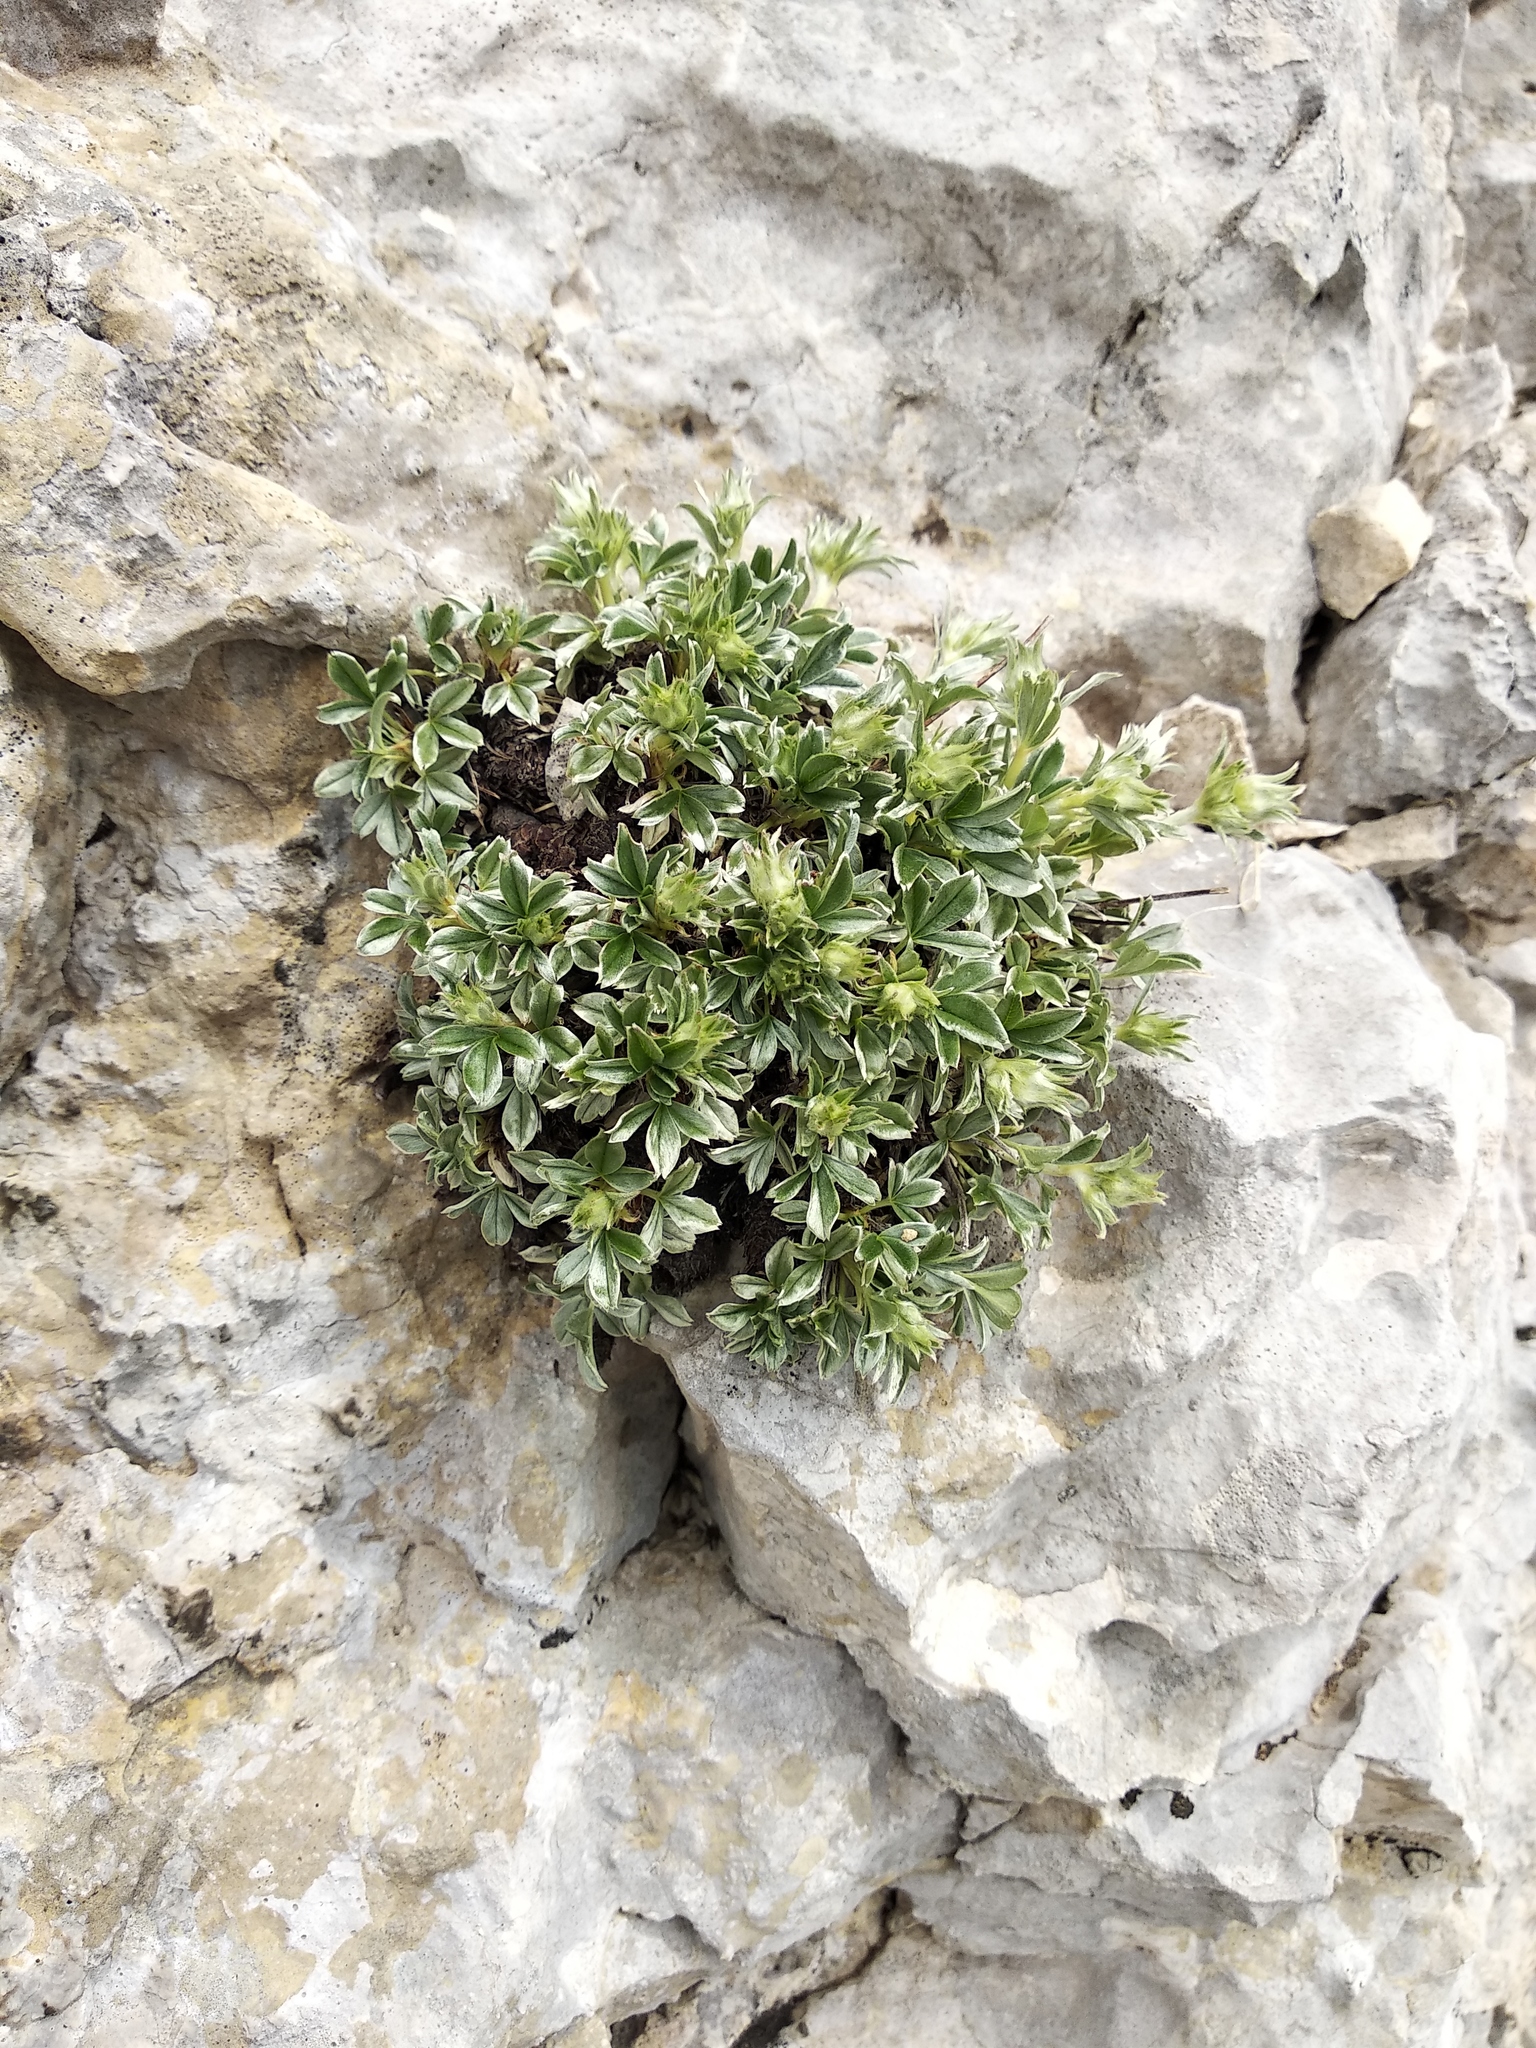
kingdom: Plantae
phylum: Tracheophyta
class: Magnoliopsida
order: Rosales
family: Rosaceae
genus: Potentilla
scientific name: Potentilla apennina
